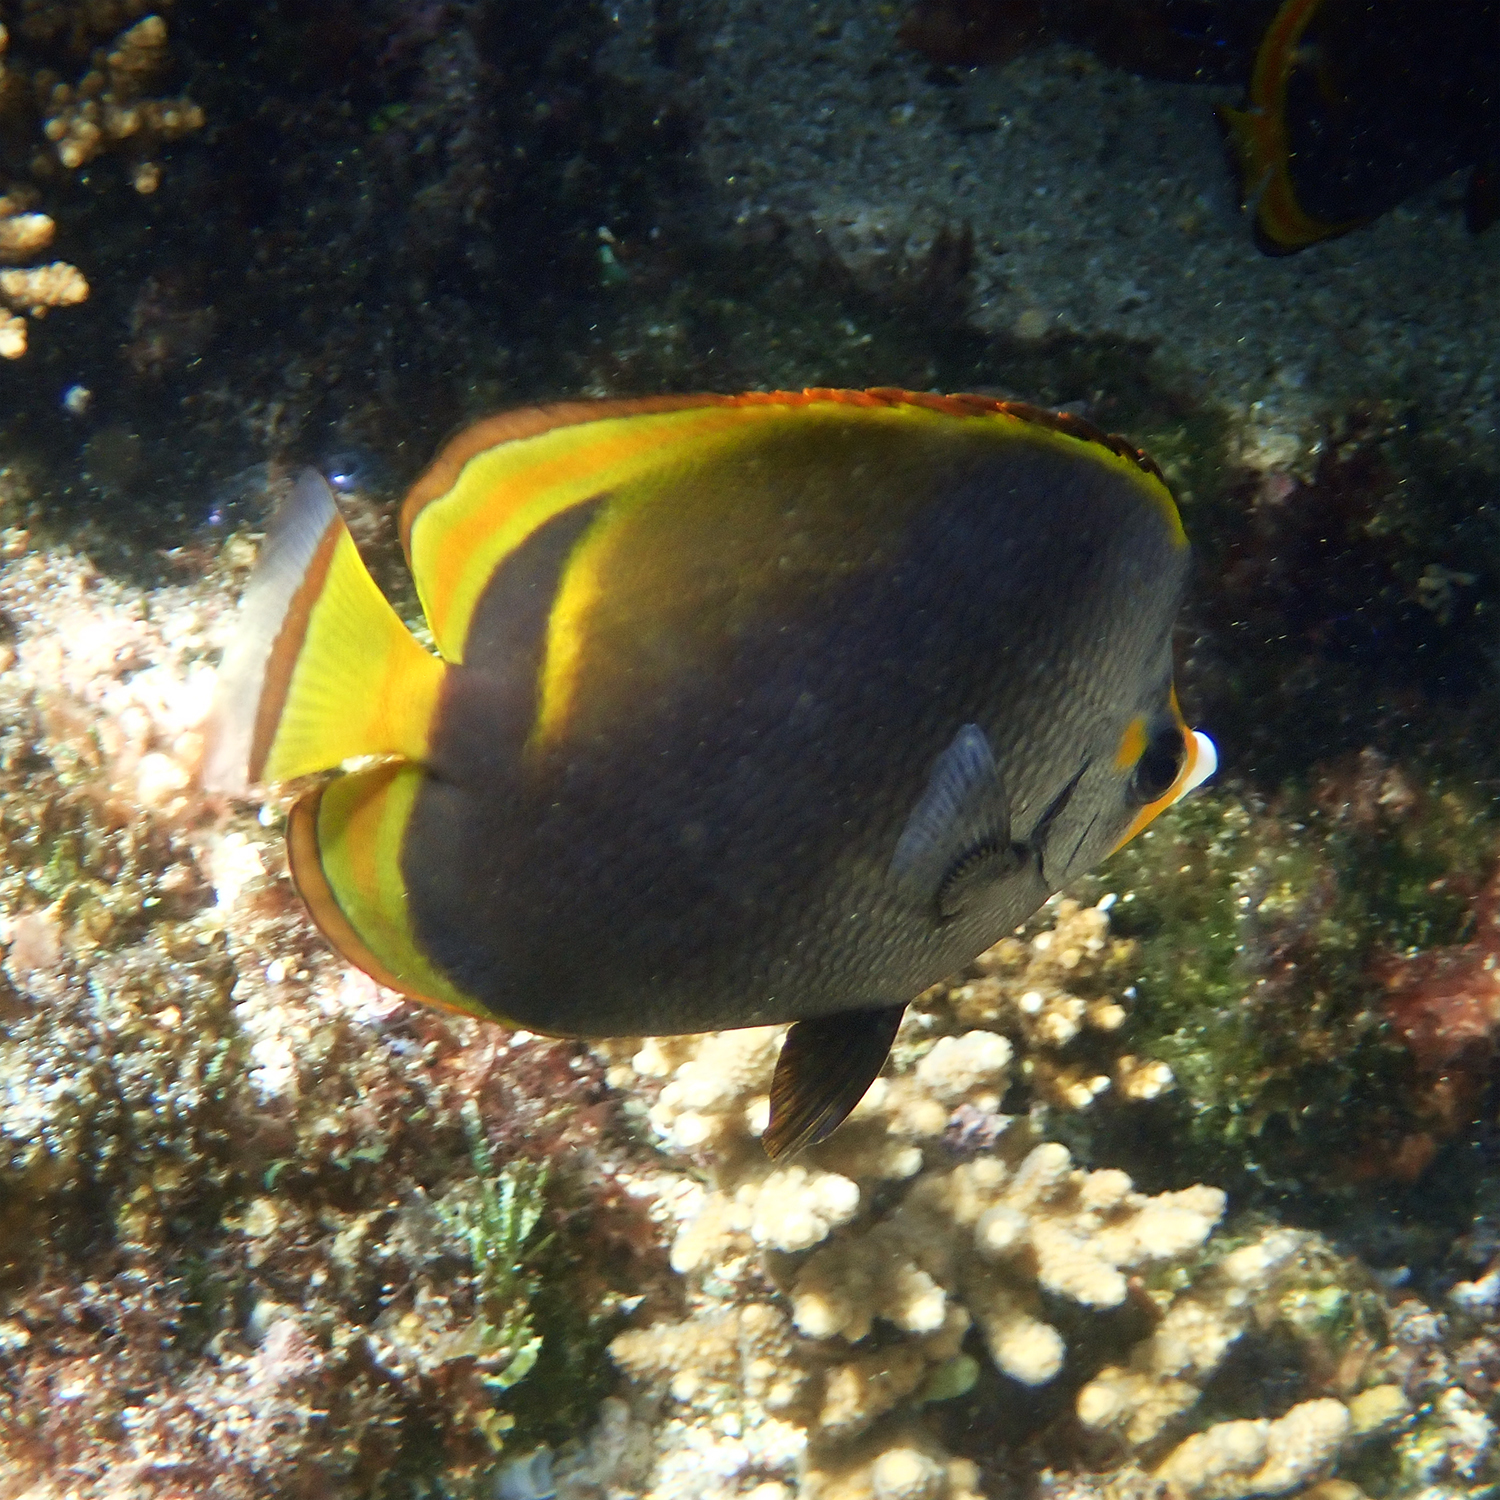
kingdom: Animalia
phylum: Chordata
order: Perciformes
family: Chaetodontidae
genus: Chaetodon
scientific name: Chaetodon flavirostris
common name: Black butterflyfish
